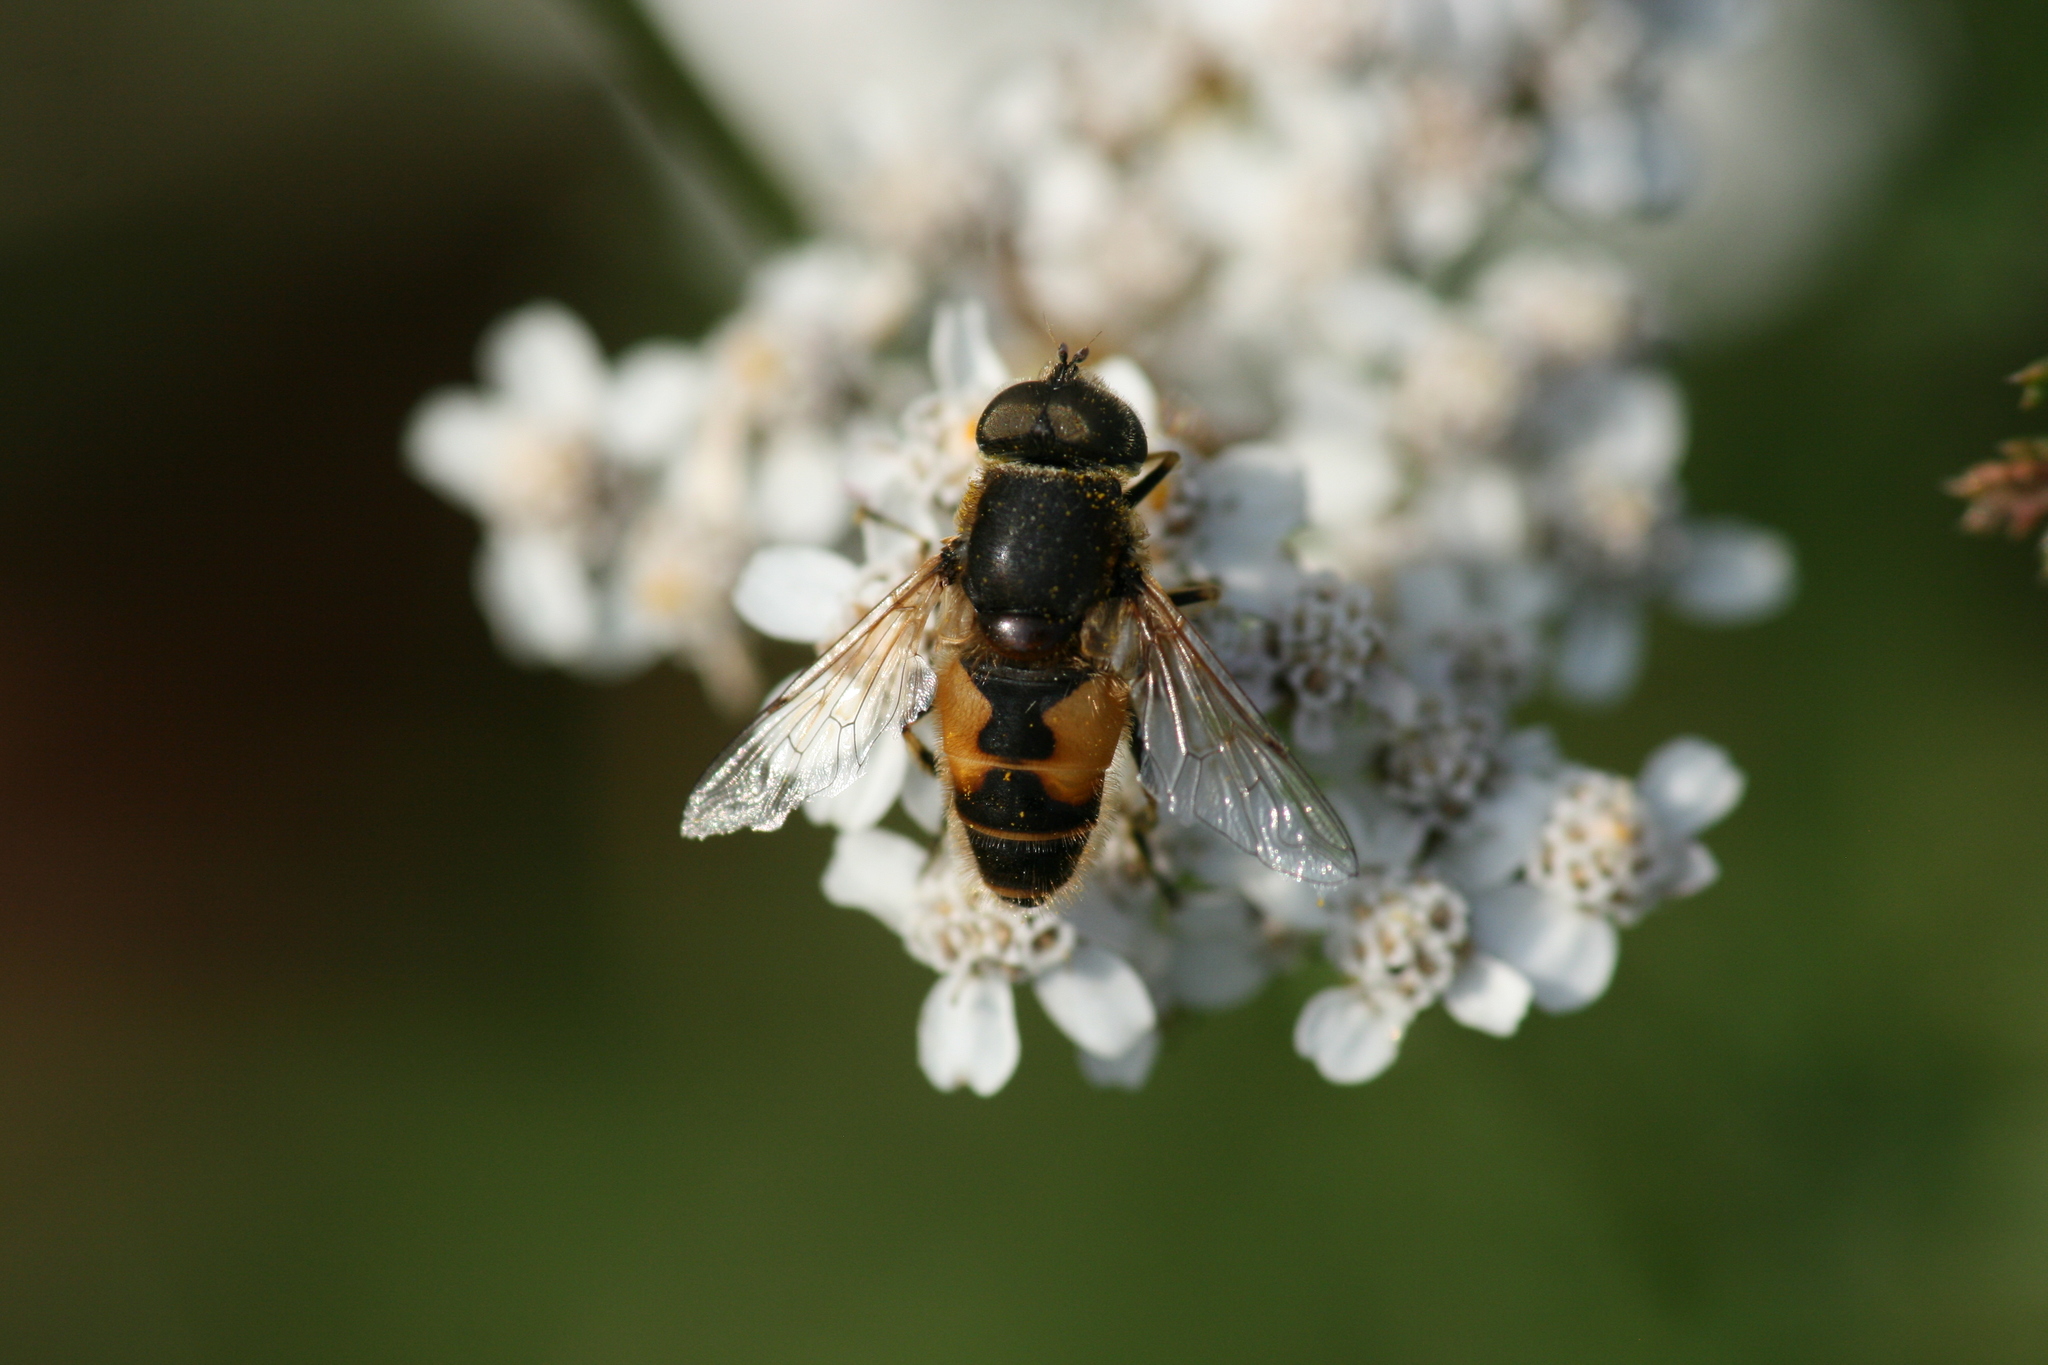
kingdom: Animalia
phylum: Arthropoda
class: Insecta
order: Diptera
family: Syrphidae
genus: Eristalis
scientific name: Eristalis arbustorum
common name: Hover fly
